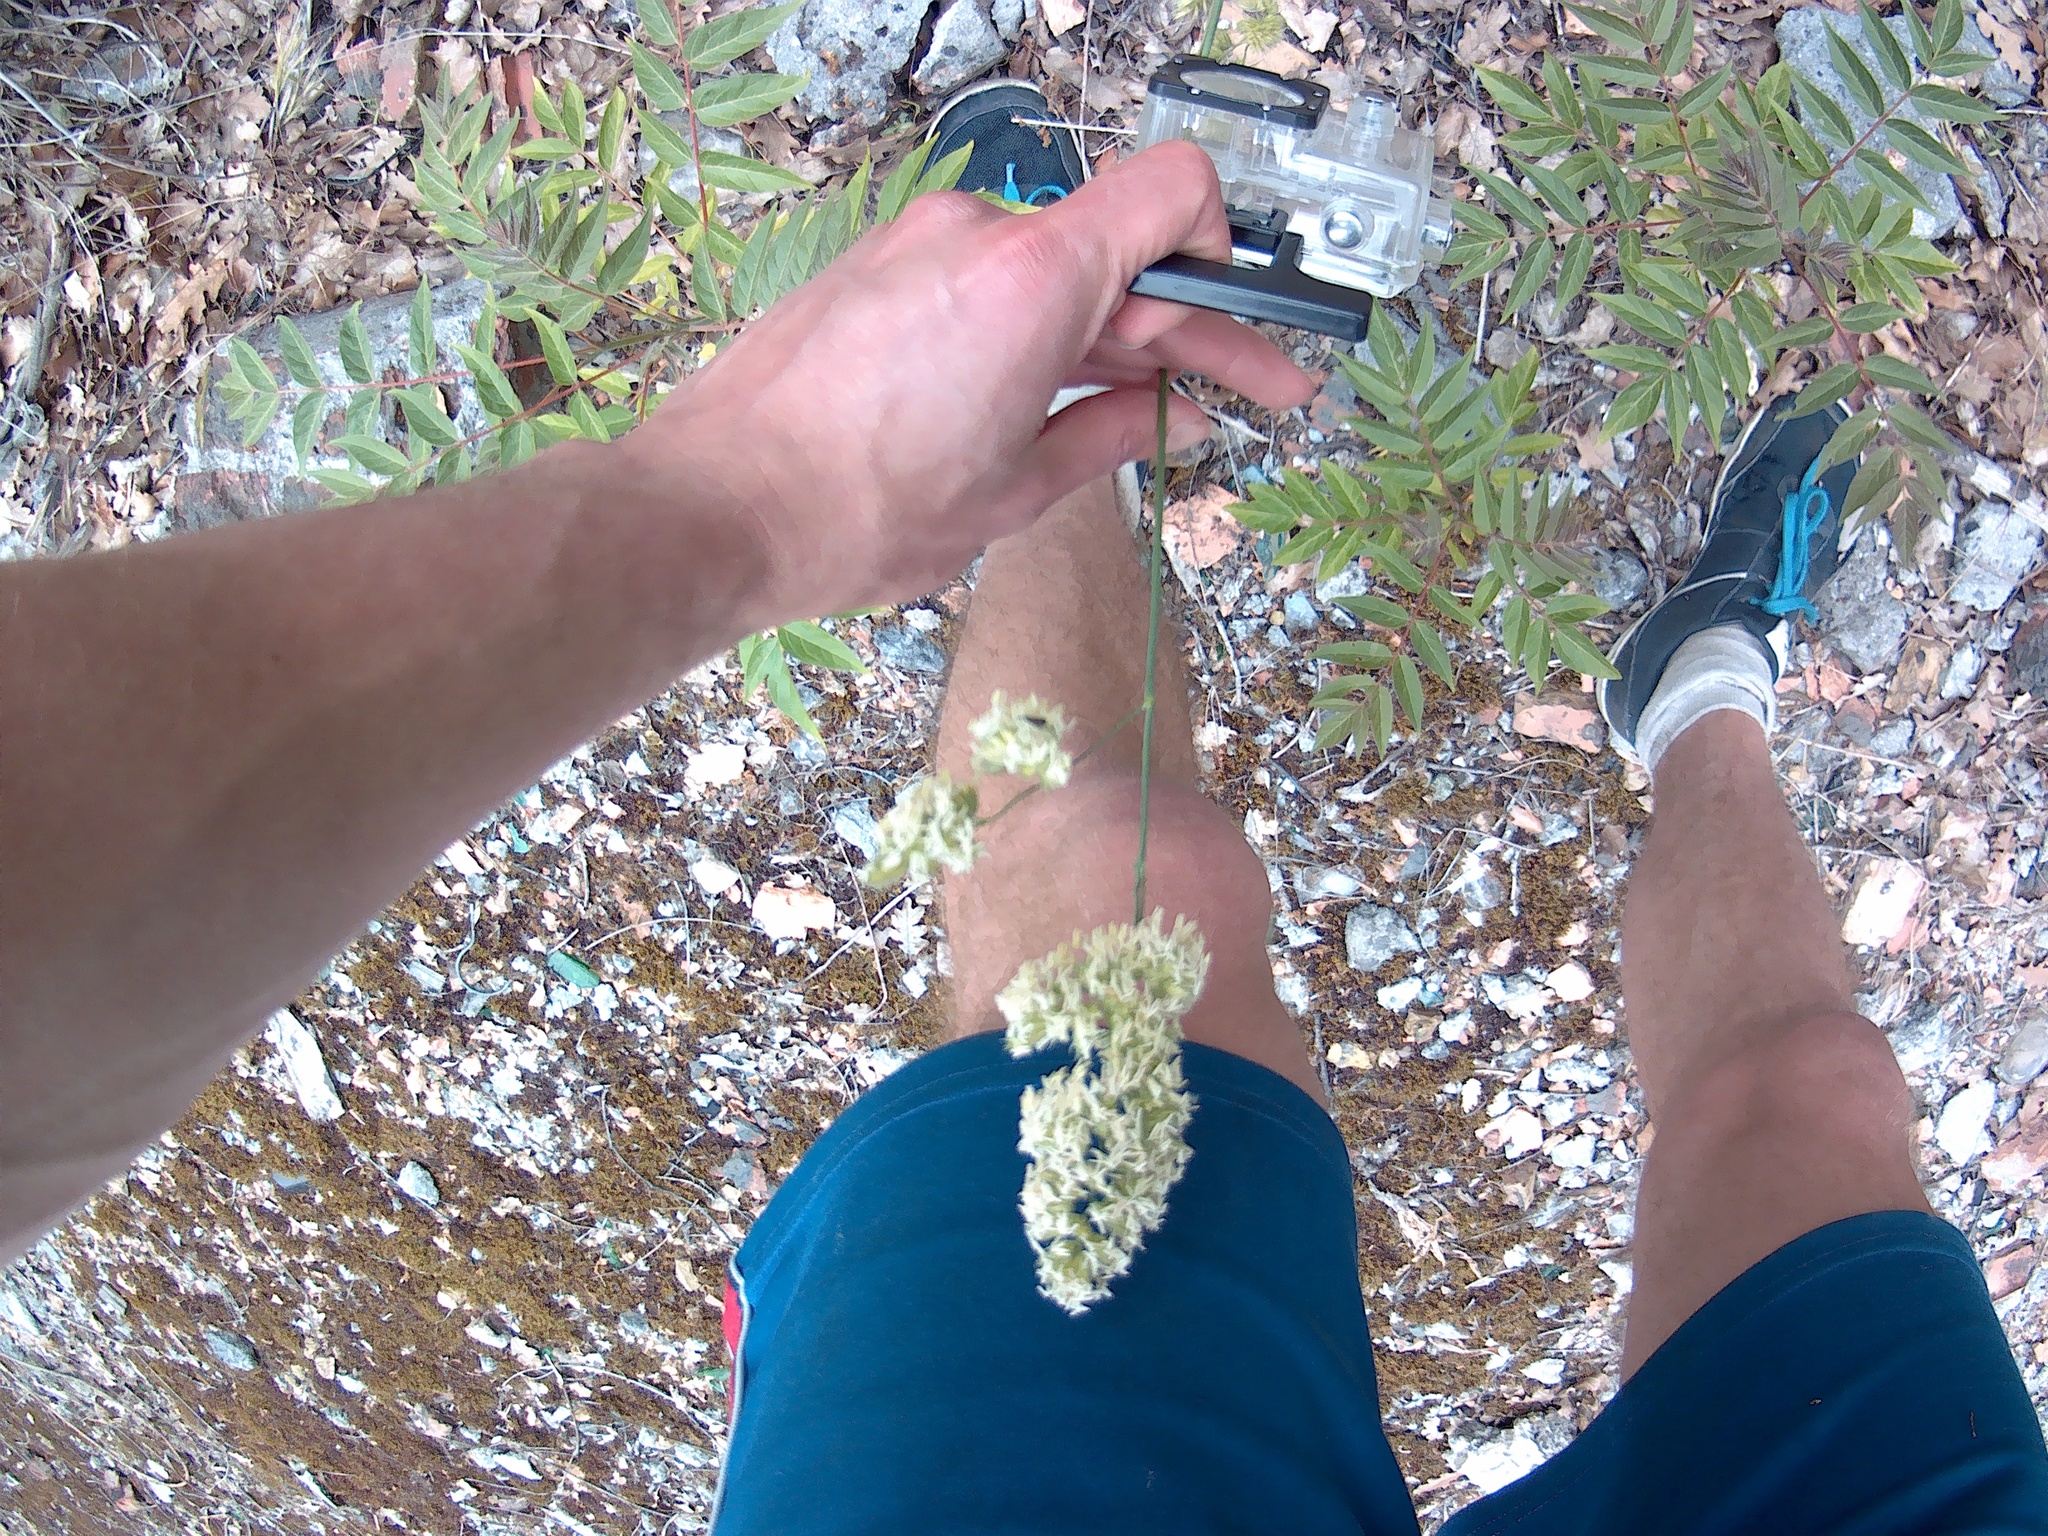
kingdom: Plantae
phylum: Tracheophyta
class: Liliopsida
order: Poales
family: Poaceae
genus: Dactylis
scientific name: Dactylis glomerata
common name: Orchardgrass
